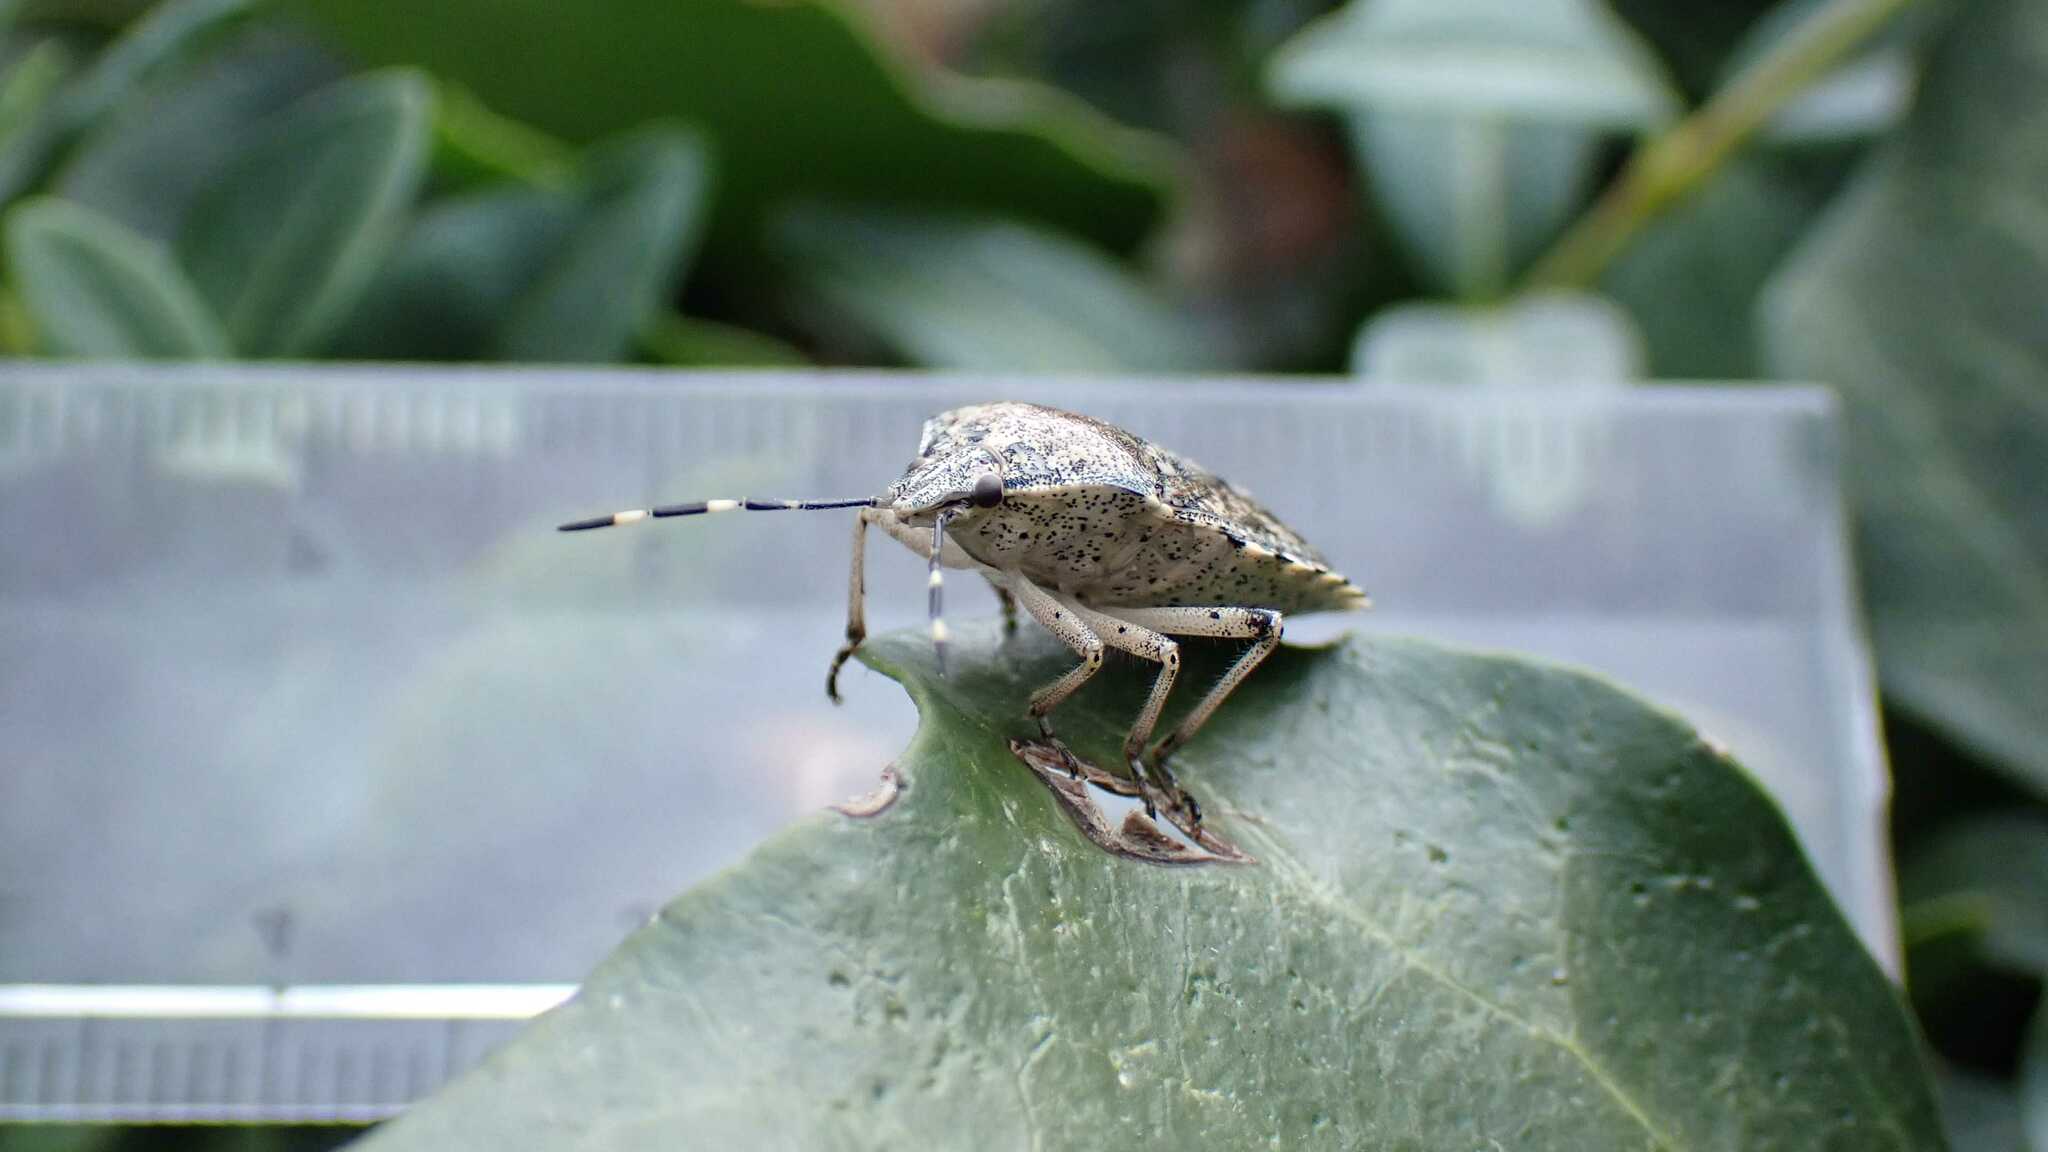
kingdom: Animalia
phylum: Arthropoda
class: Insecta
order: Hemiptera
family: Pentatomidae
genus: Rhaphigaster
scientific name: Rhaphigaster nebulosa
